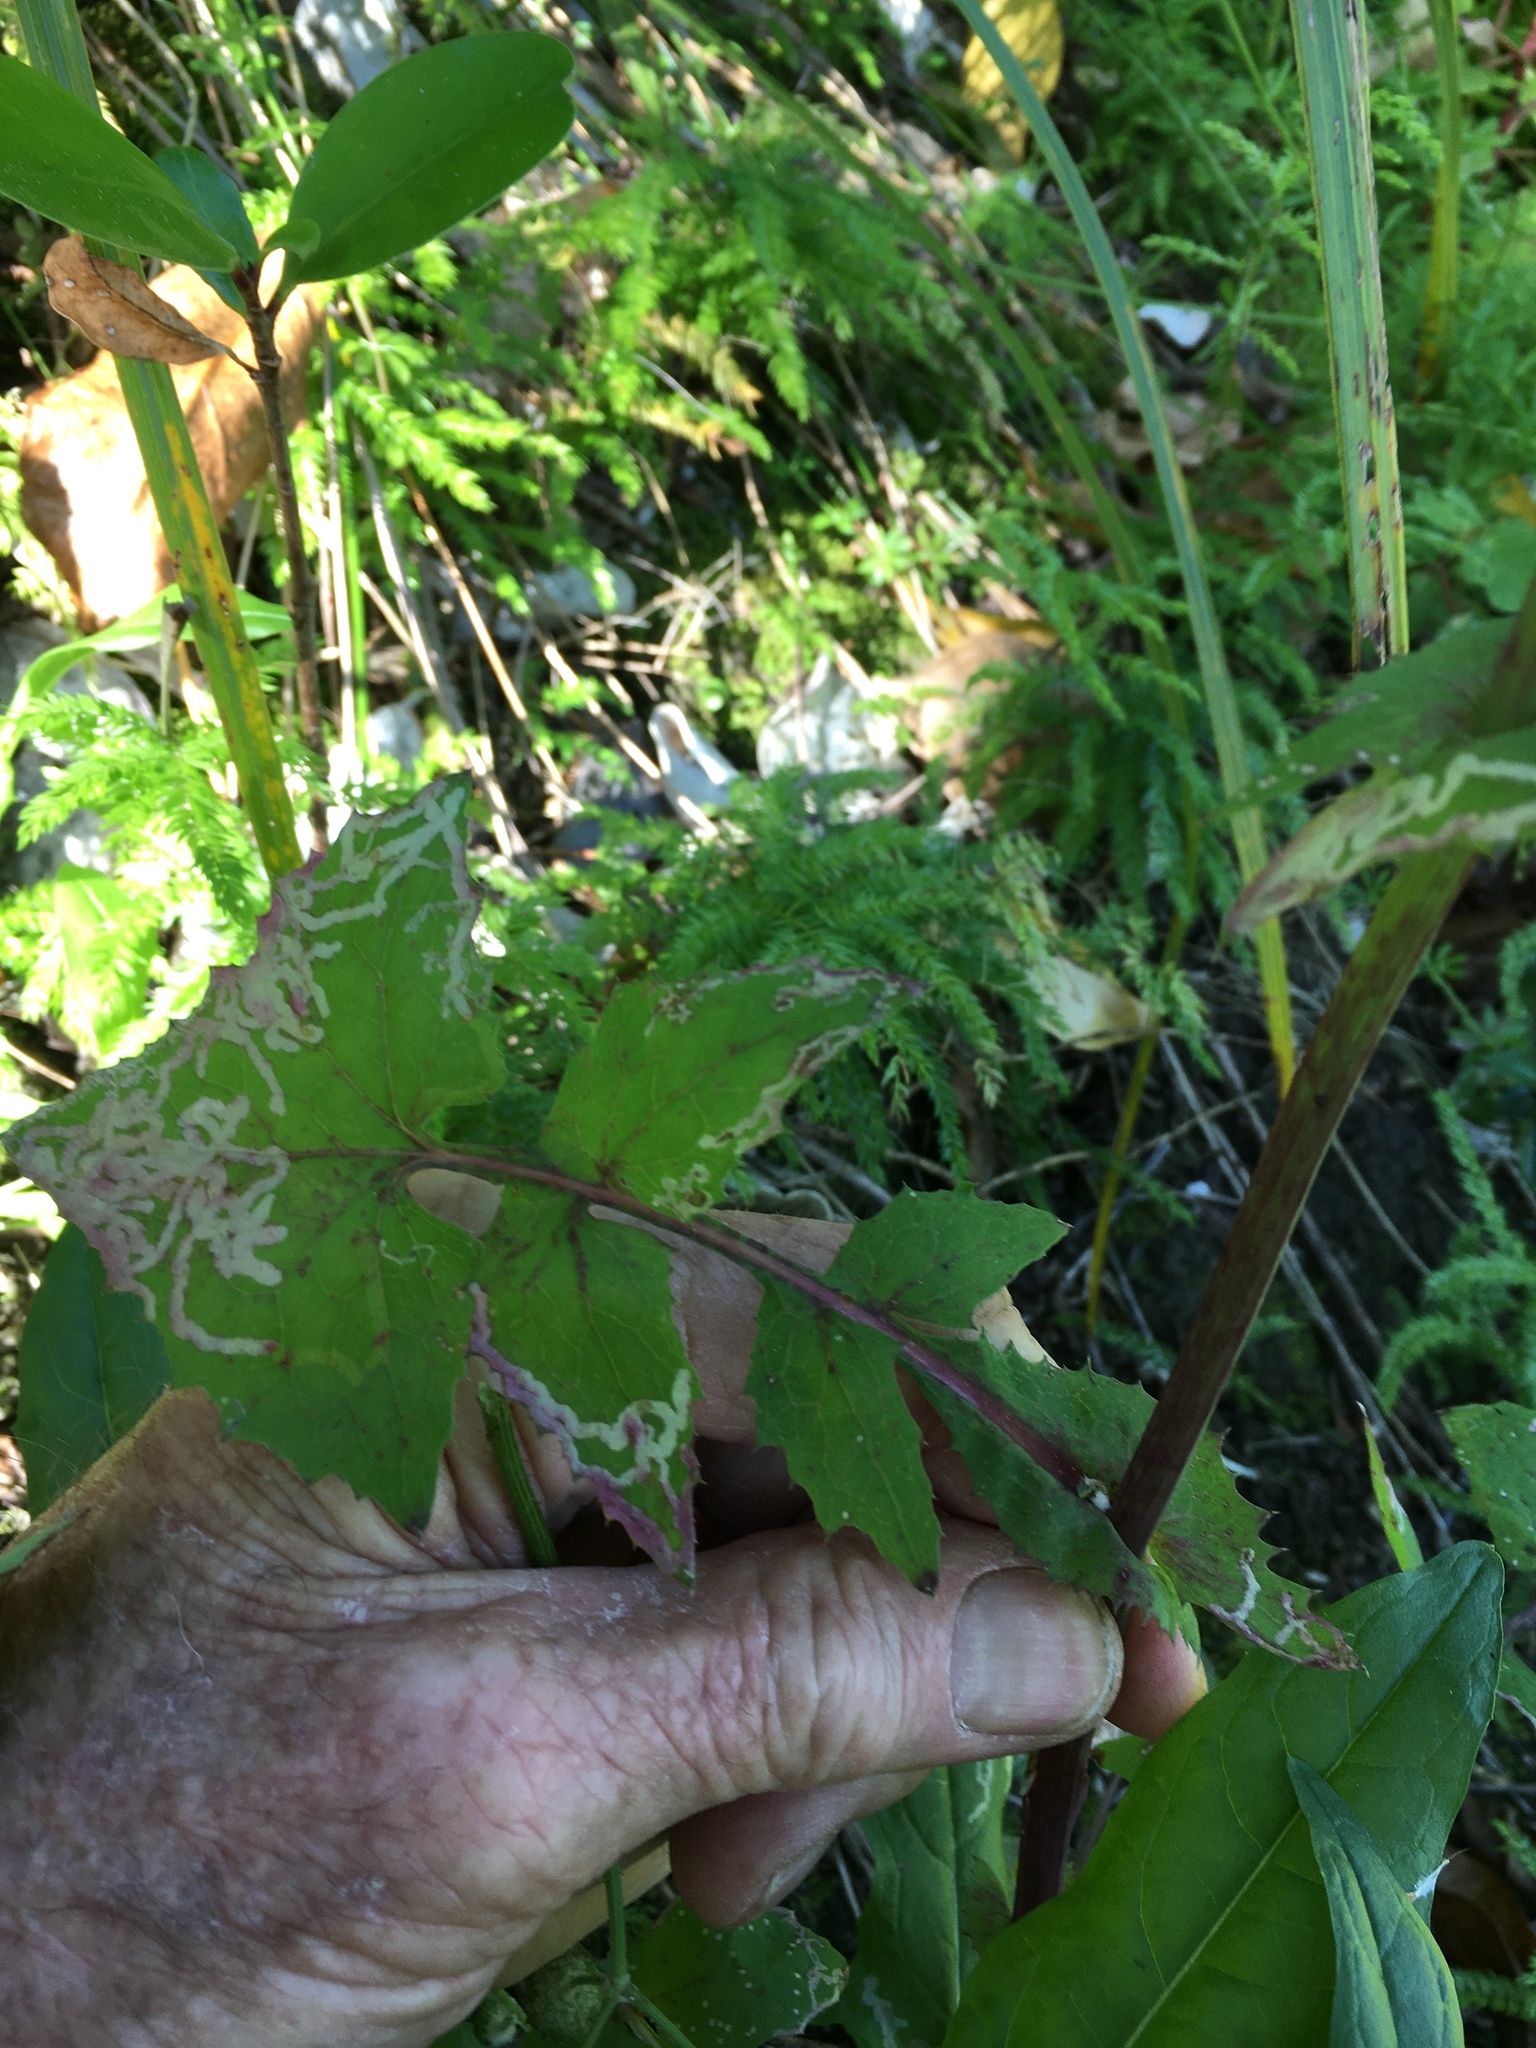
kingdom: Plantae
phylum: Tracheophyta
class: Magnoliopsida
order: Asterales
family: Asteraceae
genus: Sonchus
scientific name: Sonchus oleraceus
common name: Common sowthistle
